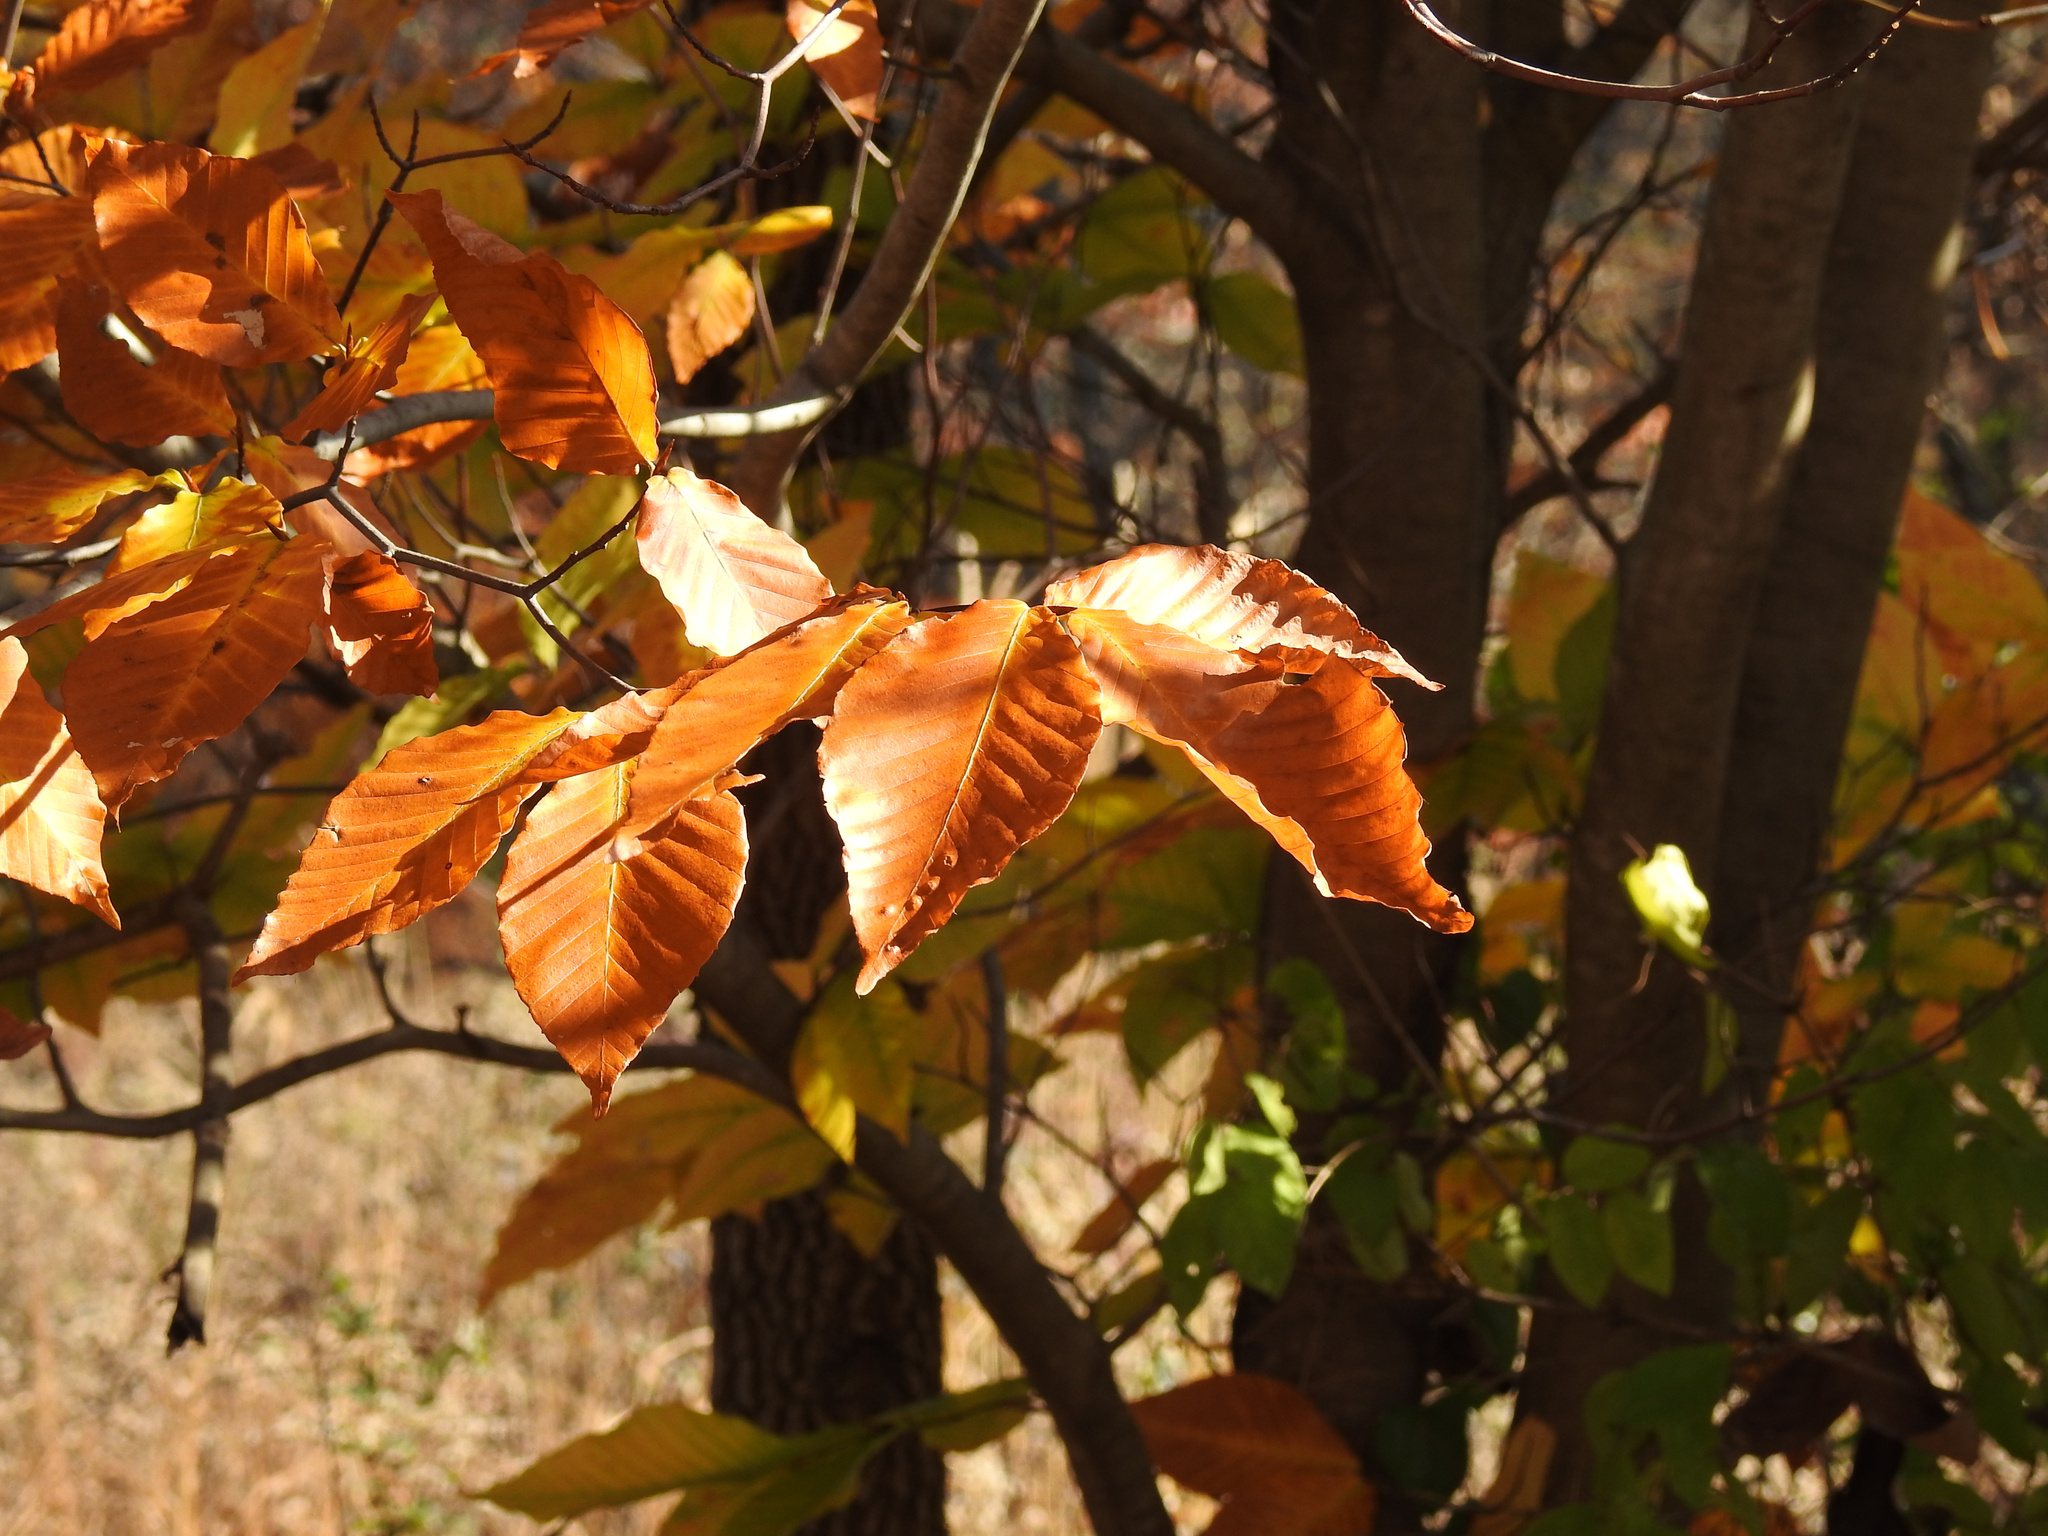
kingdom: Plantae
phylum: Tracheophyta
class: Magnoliopsida
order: Fagales
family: Fagaceae
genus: Fagus
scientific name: Fagus grandifolia
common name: American beech
